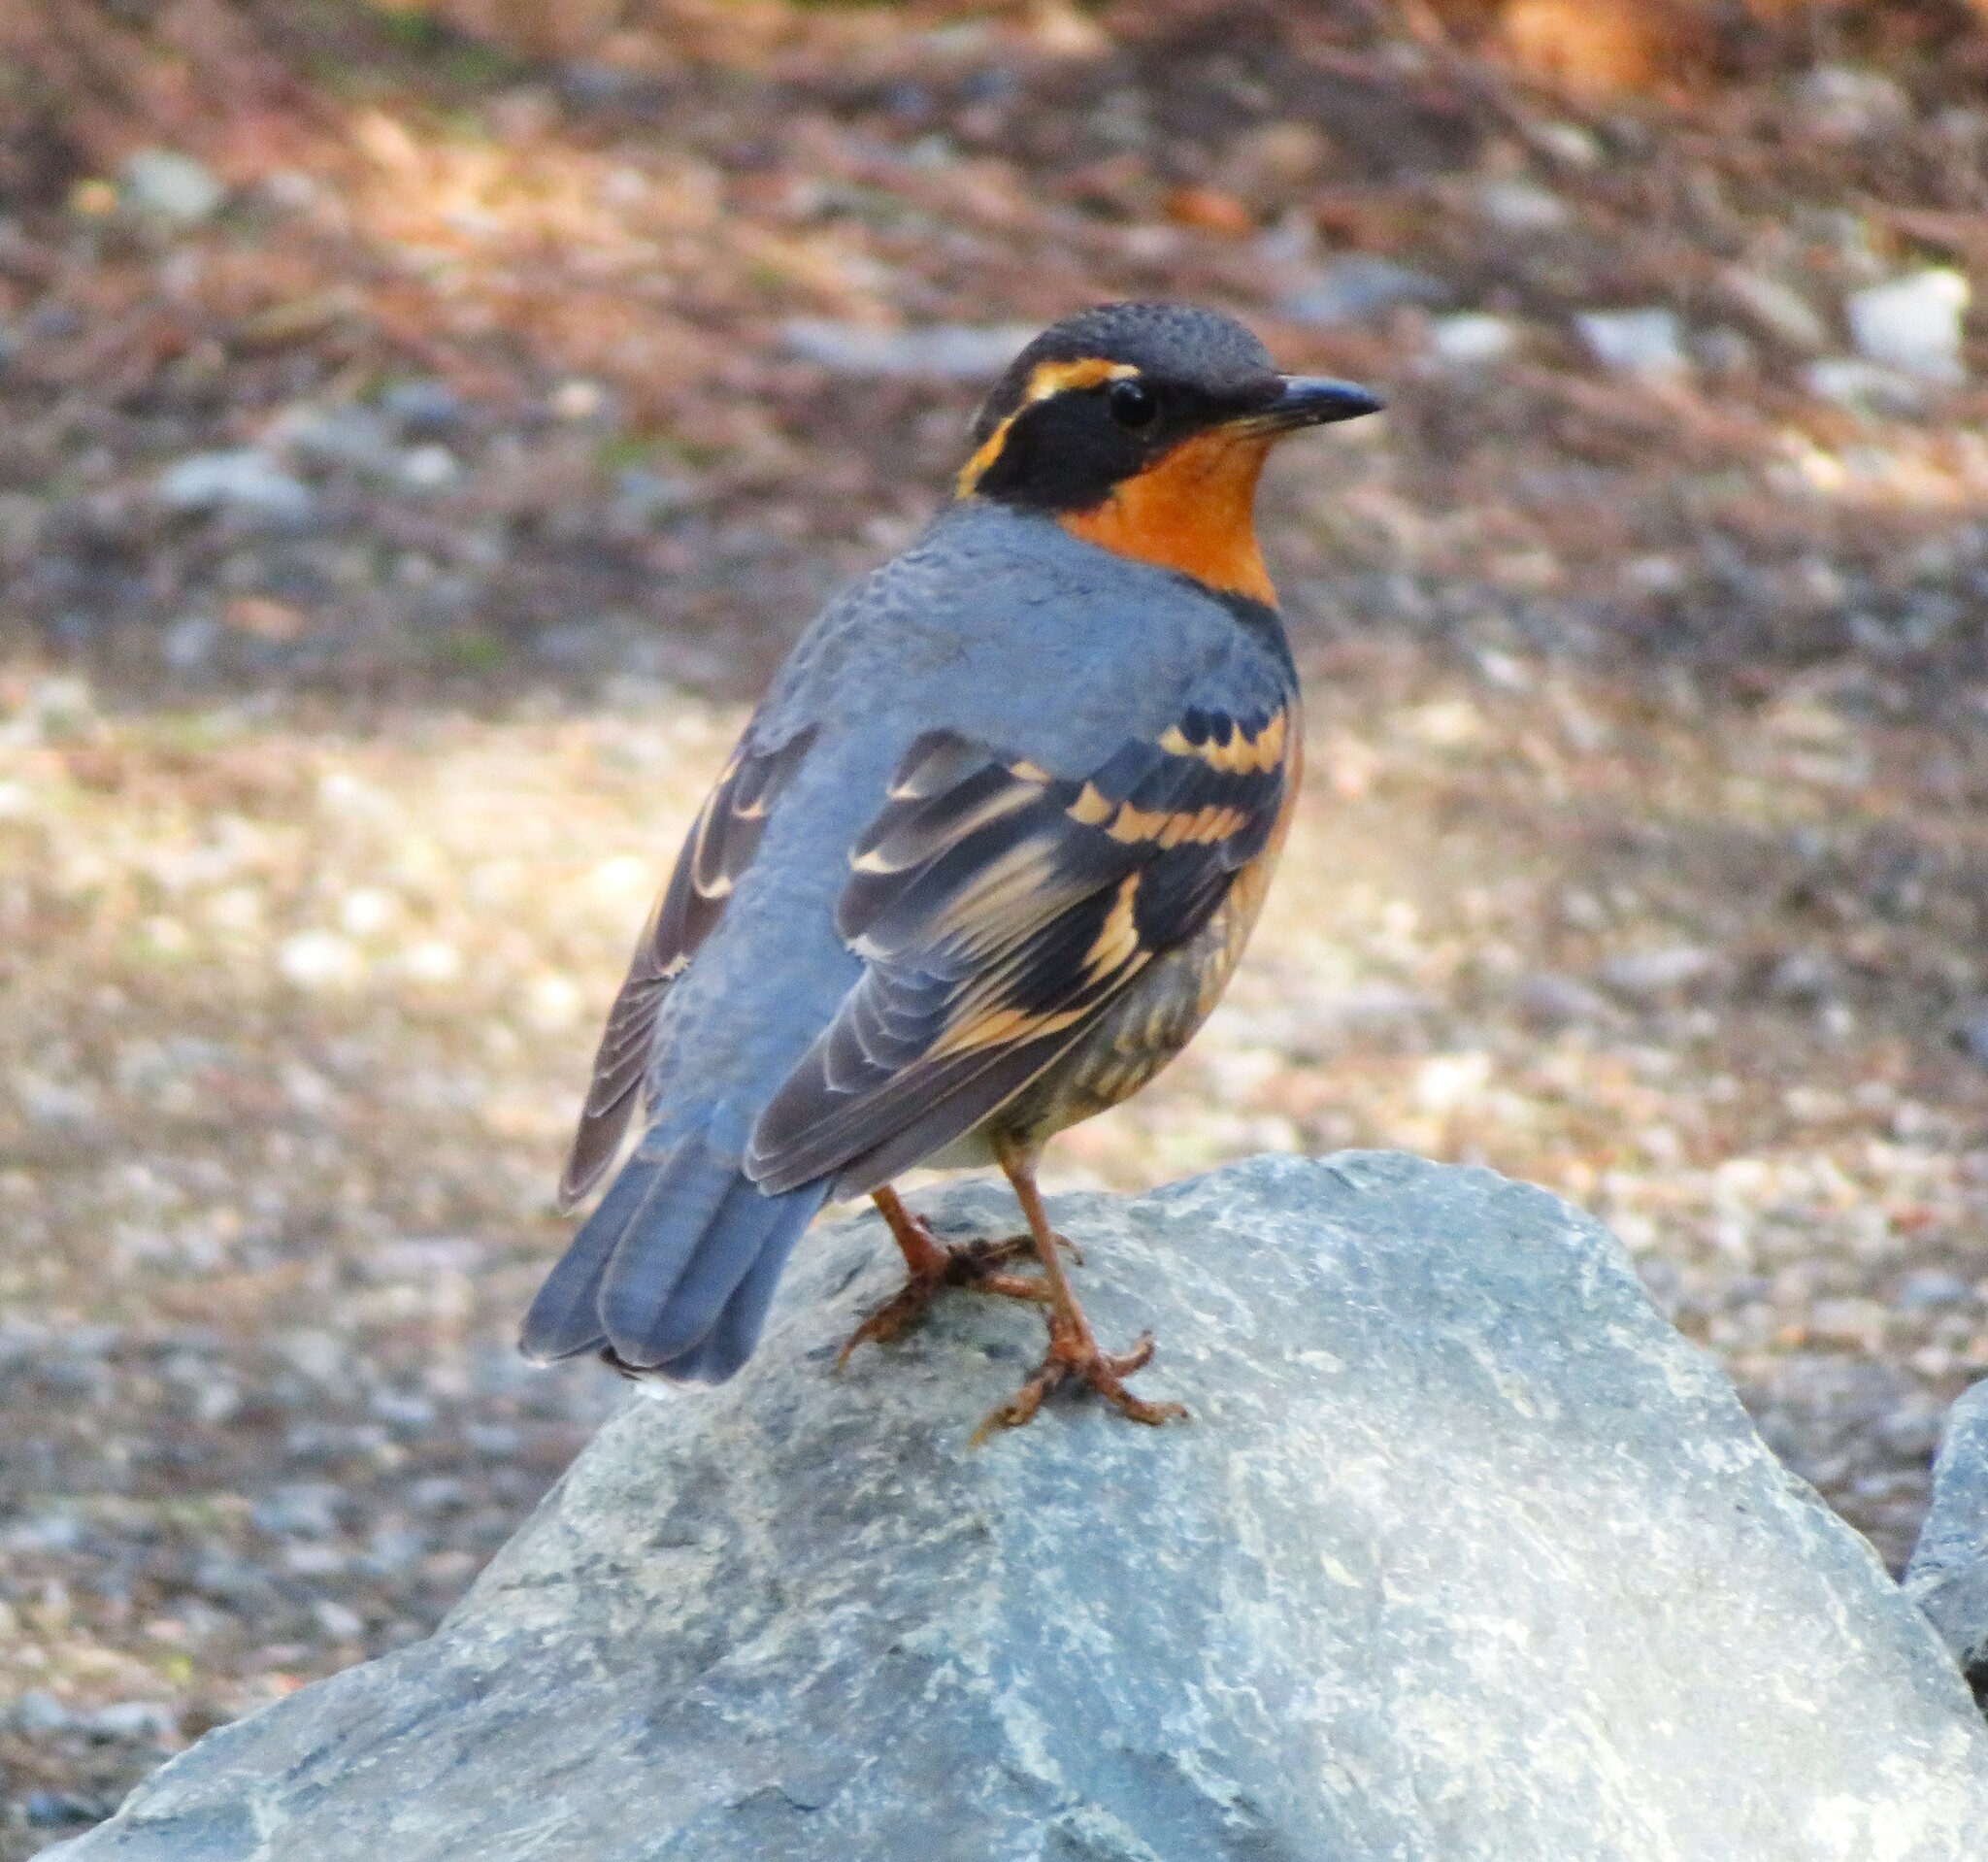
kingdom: Animalia
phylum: Chordata
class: Aves
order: Passeriformes
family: Turdidae
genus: Ixoreus
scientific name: Ixoreus naevius
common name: Varied thrush
